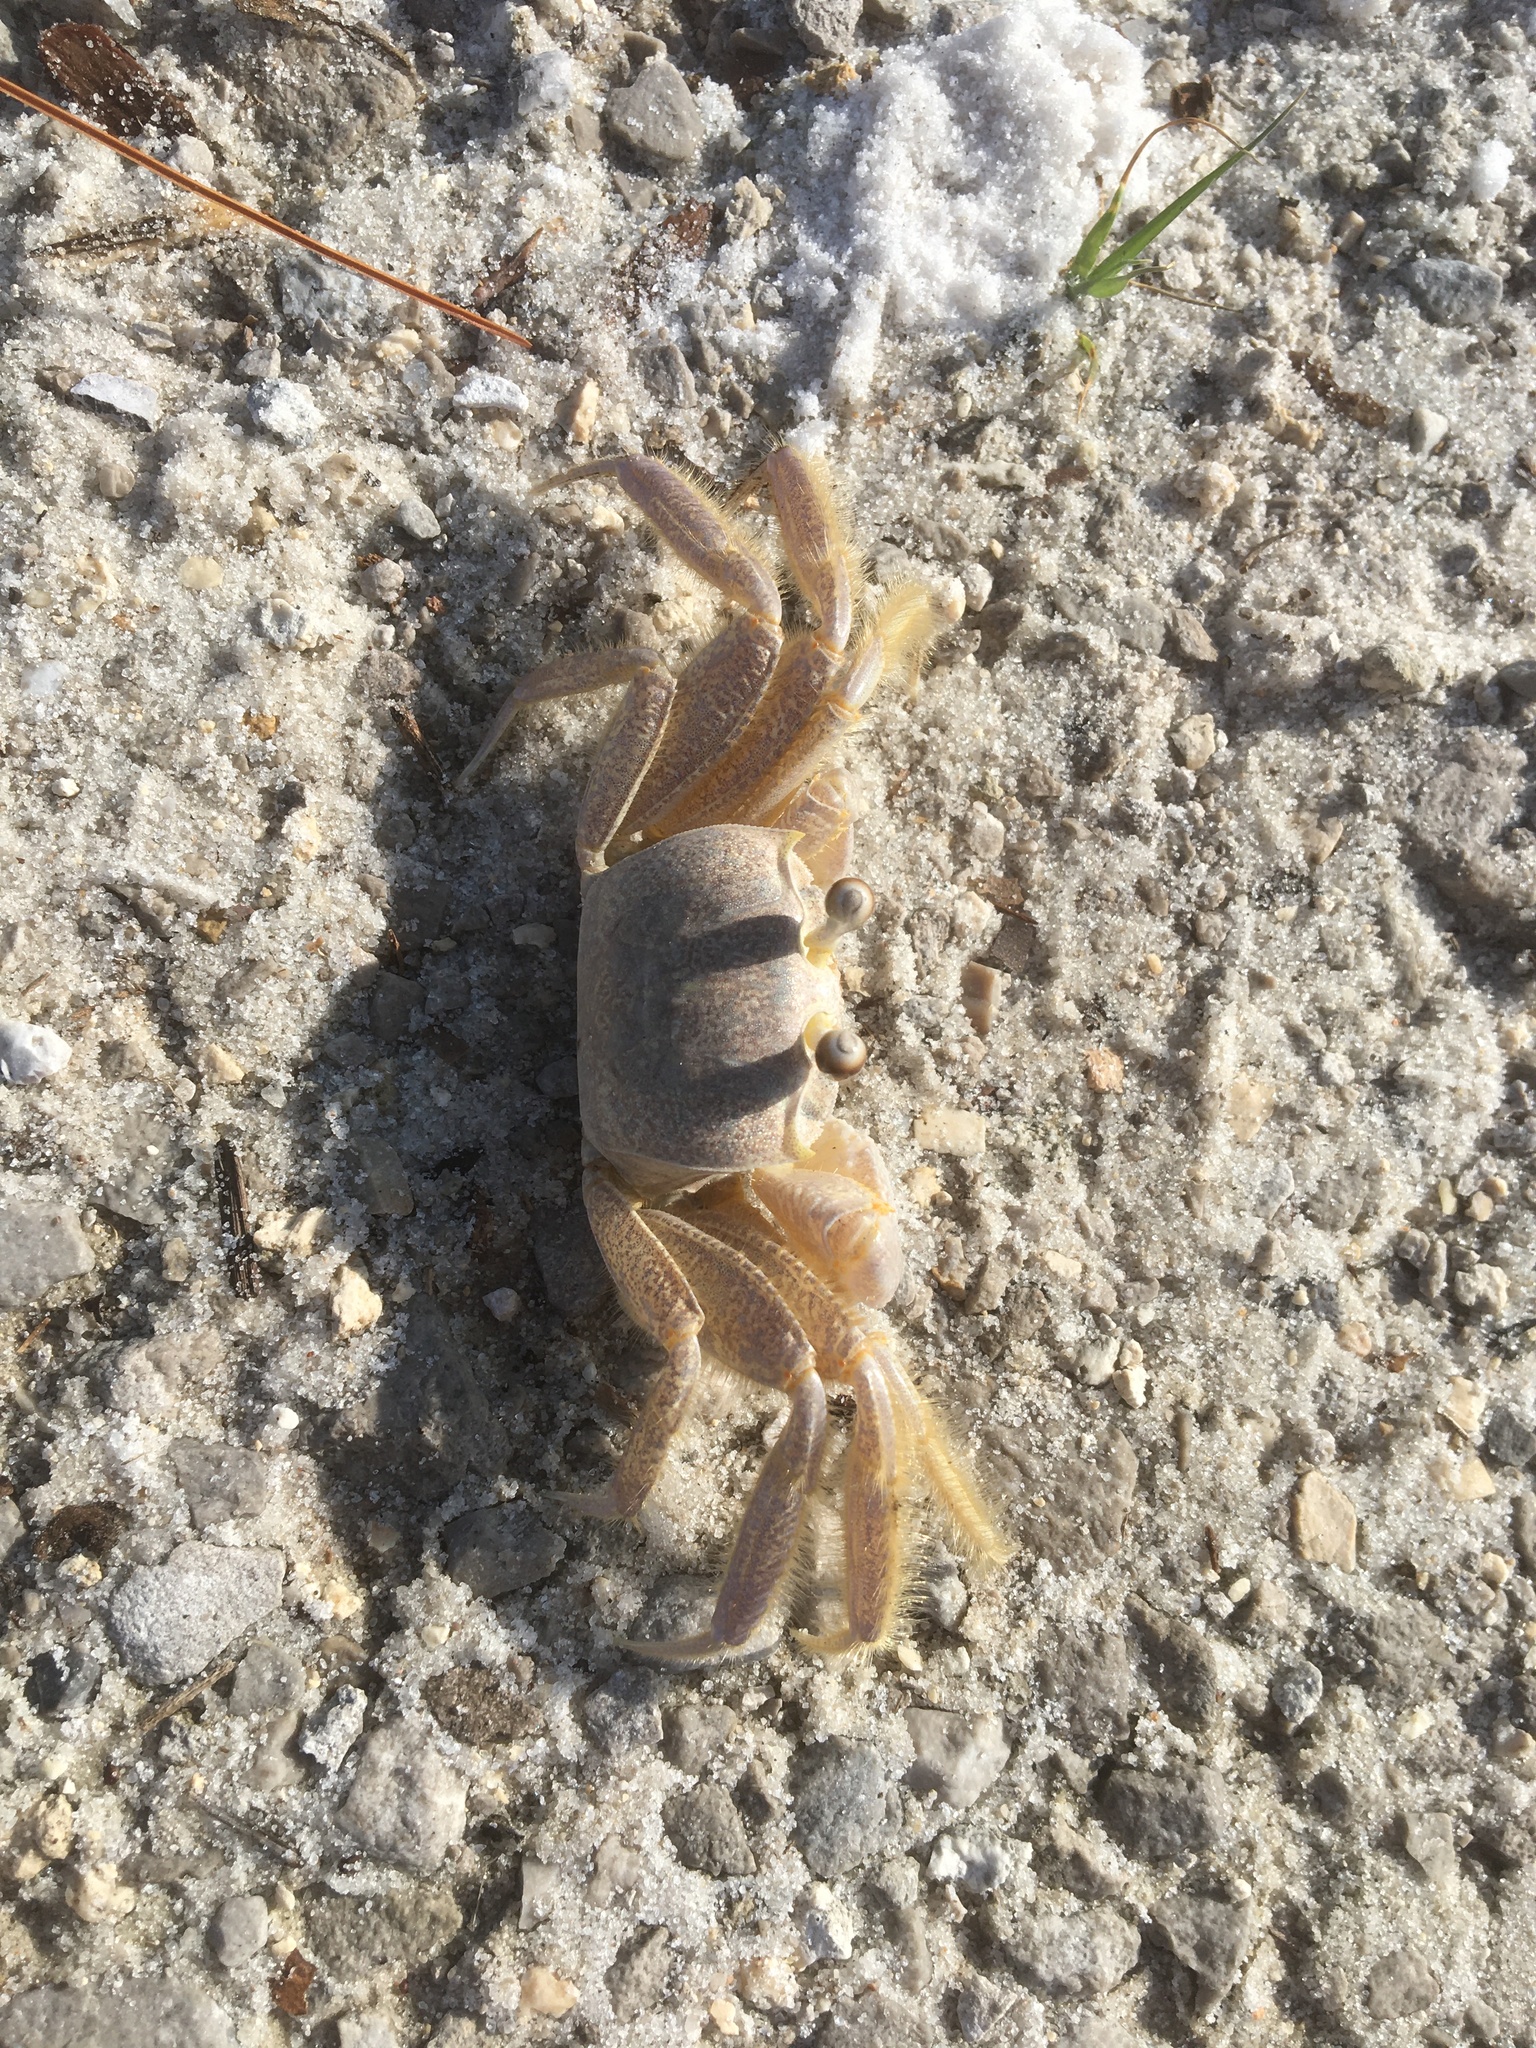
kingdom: Animalia
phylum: Arthropoda
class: Malacostraca
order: Decapoda
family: Ocypodidae
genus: Ocypode
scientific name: Ocypode quadrata
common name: Ghost crab
